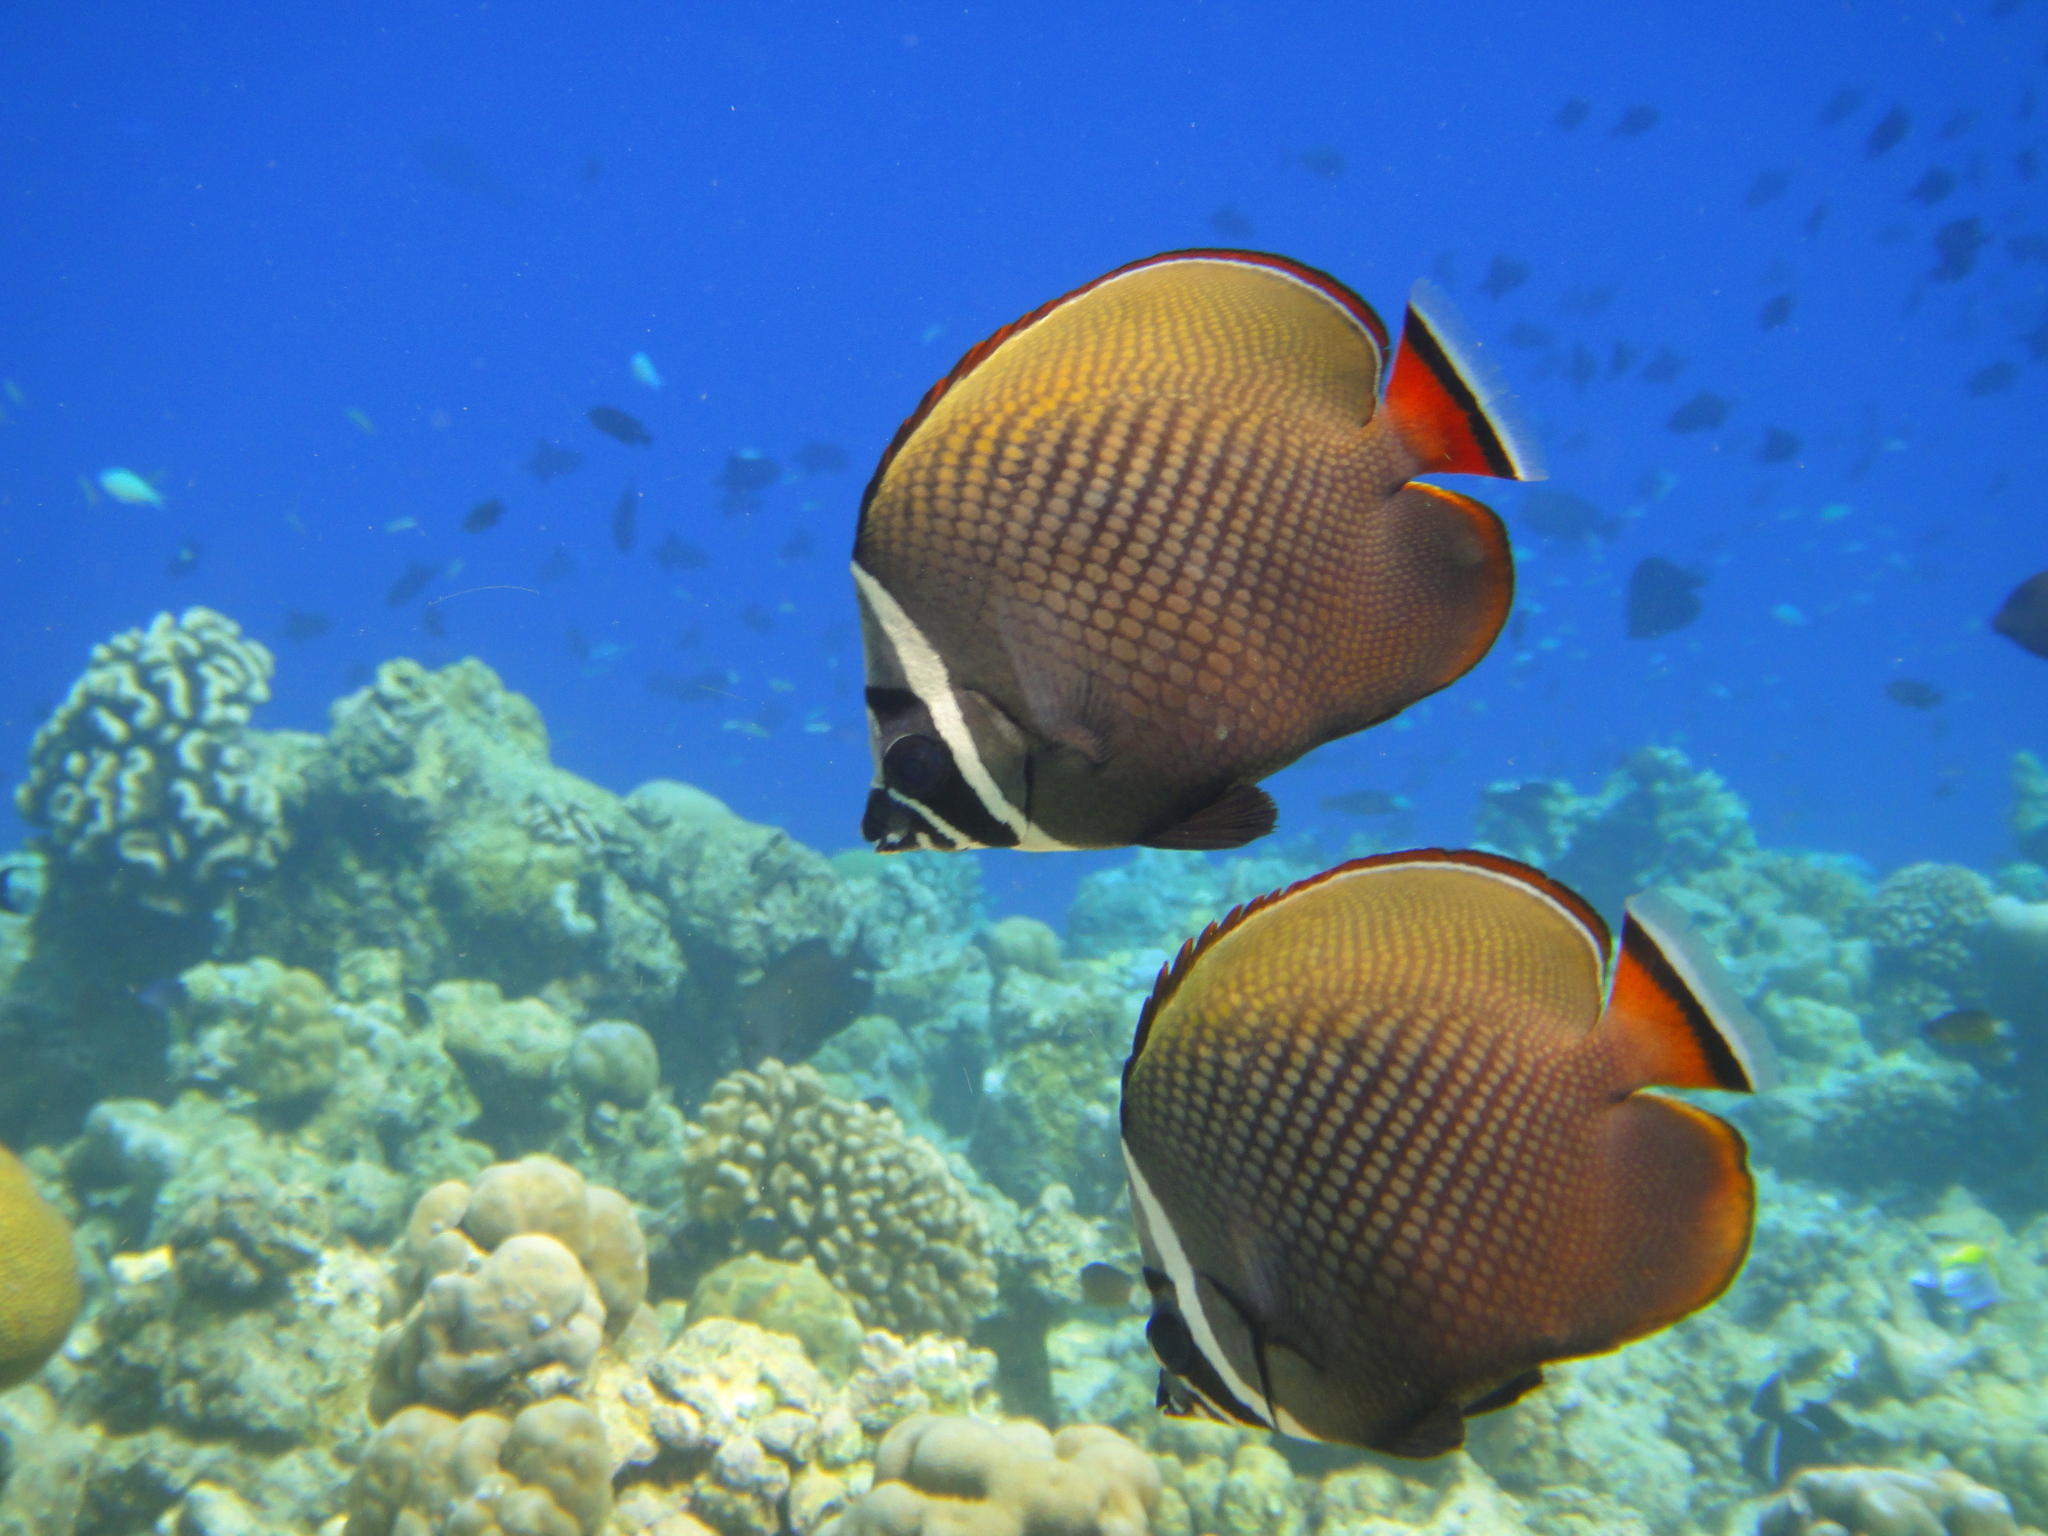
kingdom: Animalia
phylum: Chordata
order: Perciformes
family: Chaetodontidae
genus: Chaetodon
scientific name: Chaetodon collare
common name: Redtail butterflyfish
